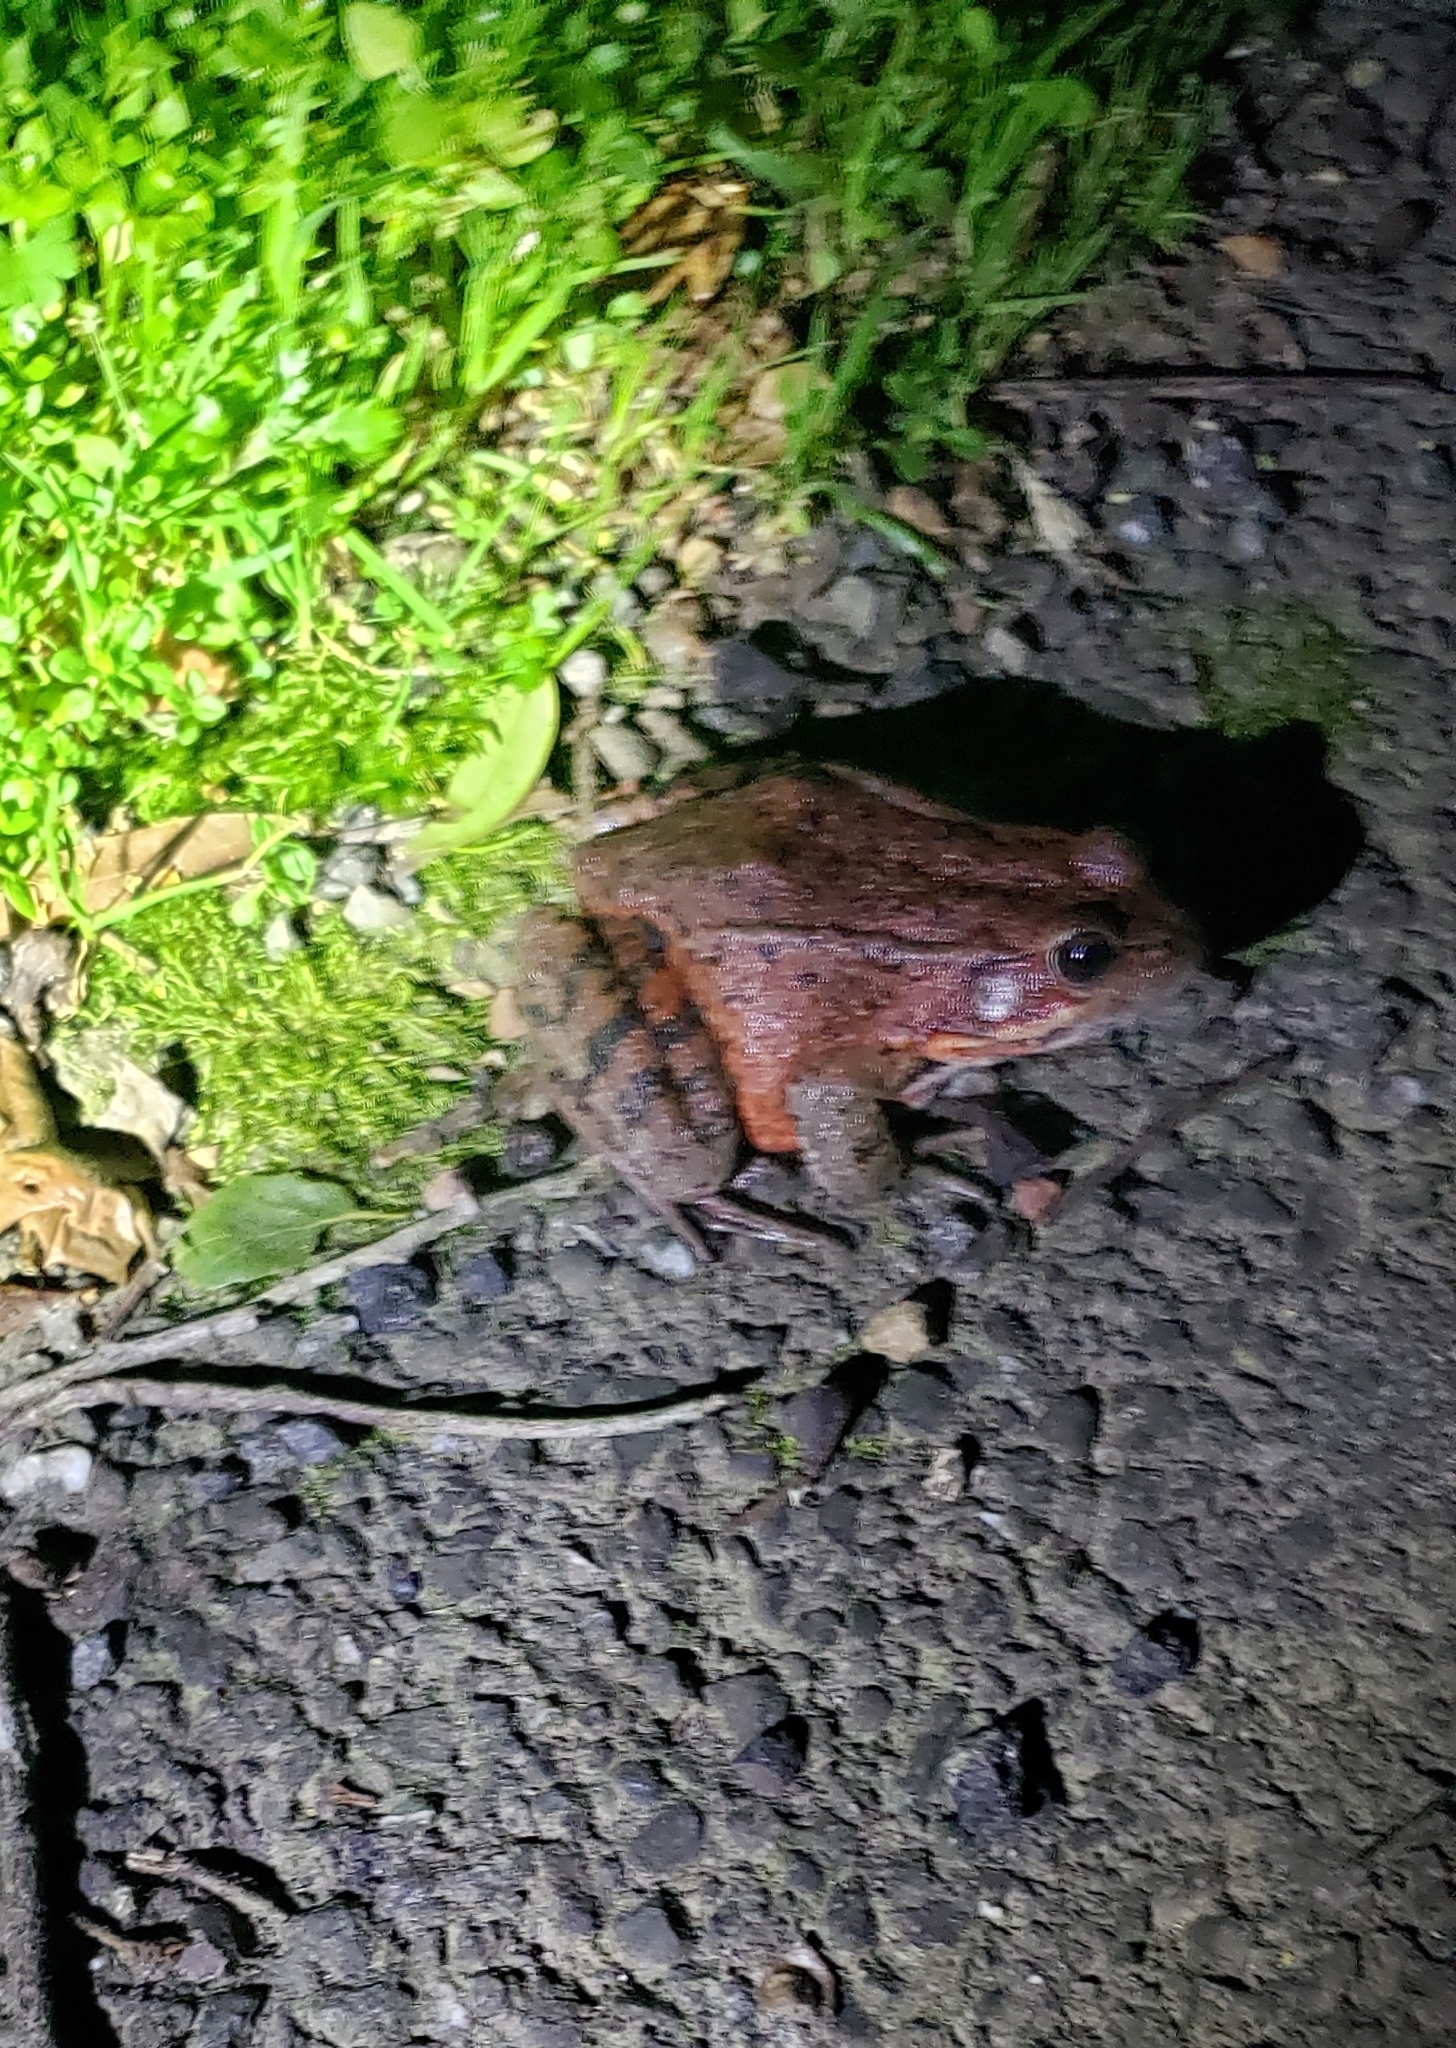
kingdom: Animalia
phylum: Chordata
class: Amphibia
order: Anura
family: Ranidae
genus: Rana
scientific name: Rana draytonii
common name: California red-legged frog
